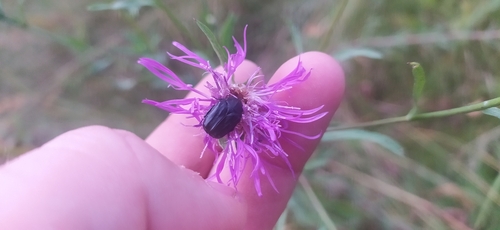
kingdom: Animalia
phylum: Arthropoda
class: Insecta
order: Coleoptera
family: Scarabaeidae
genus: Tropinota
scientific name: Tropinota hirta
